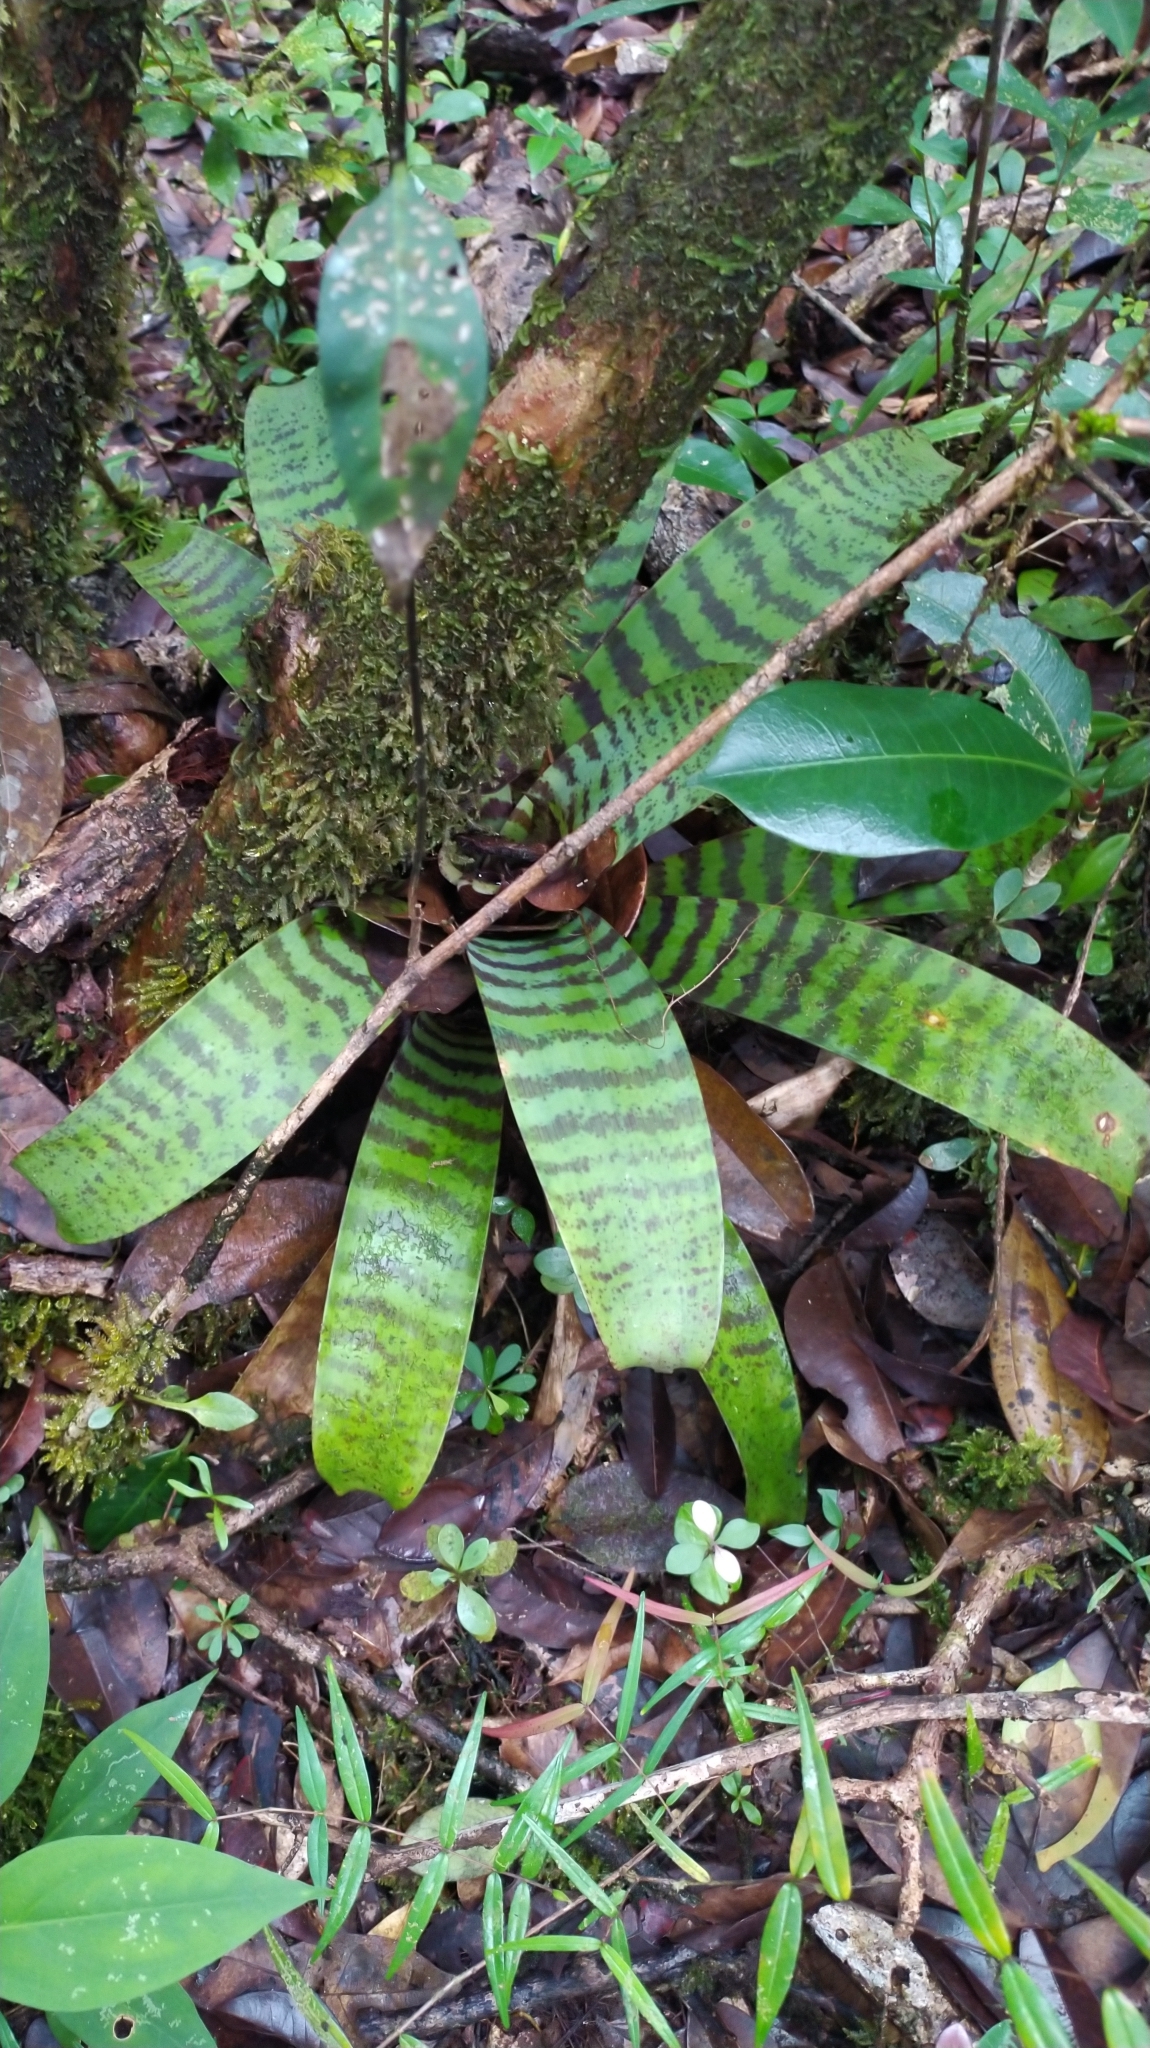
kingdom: Plantae
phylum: Tracheophyta
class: Liliopsida
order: Poales
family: Bromeliaceae
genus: Lutheria
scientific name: Lutheria splendens
